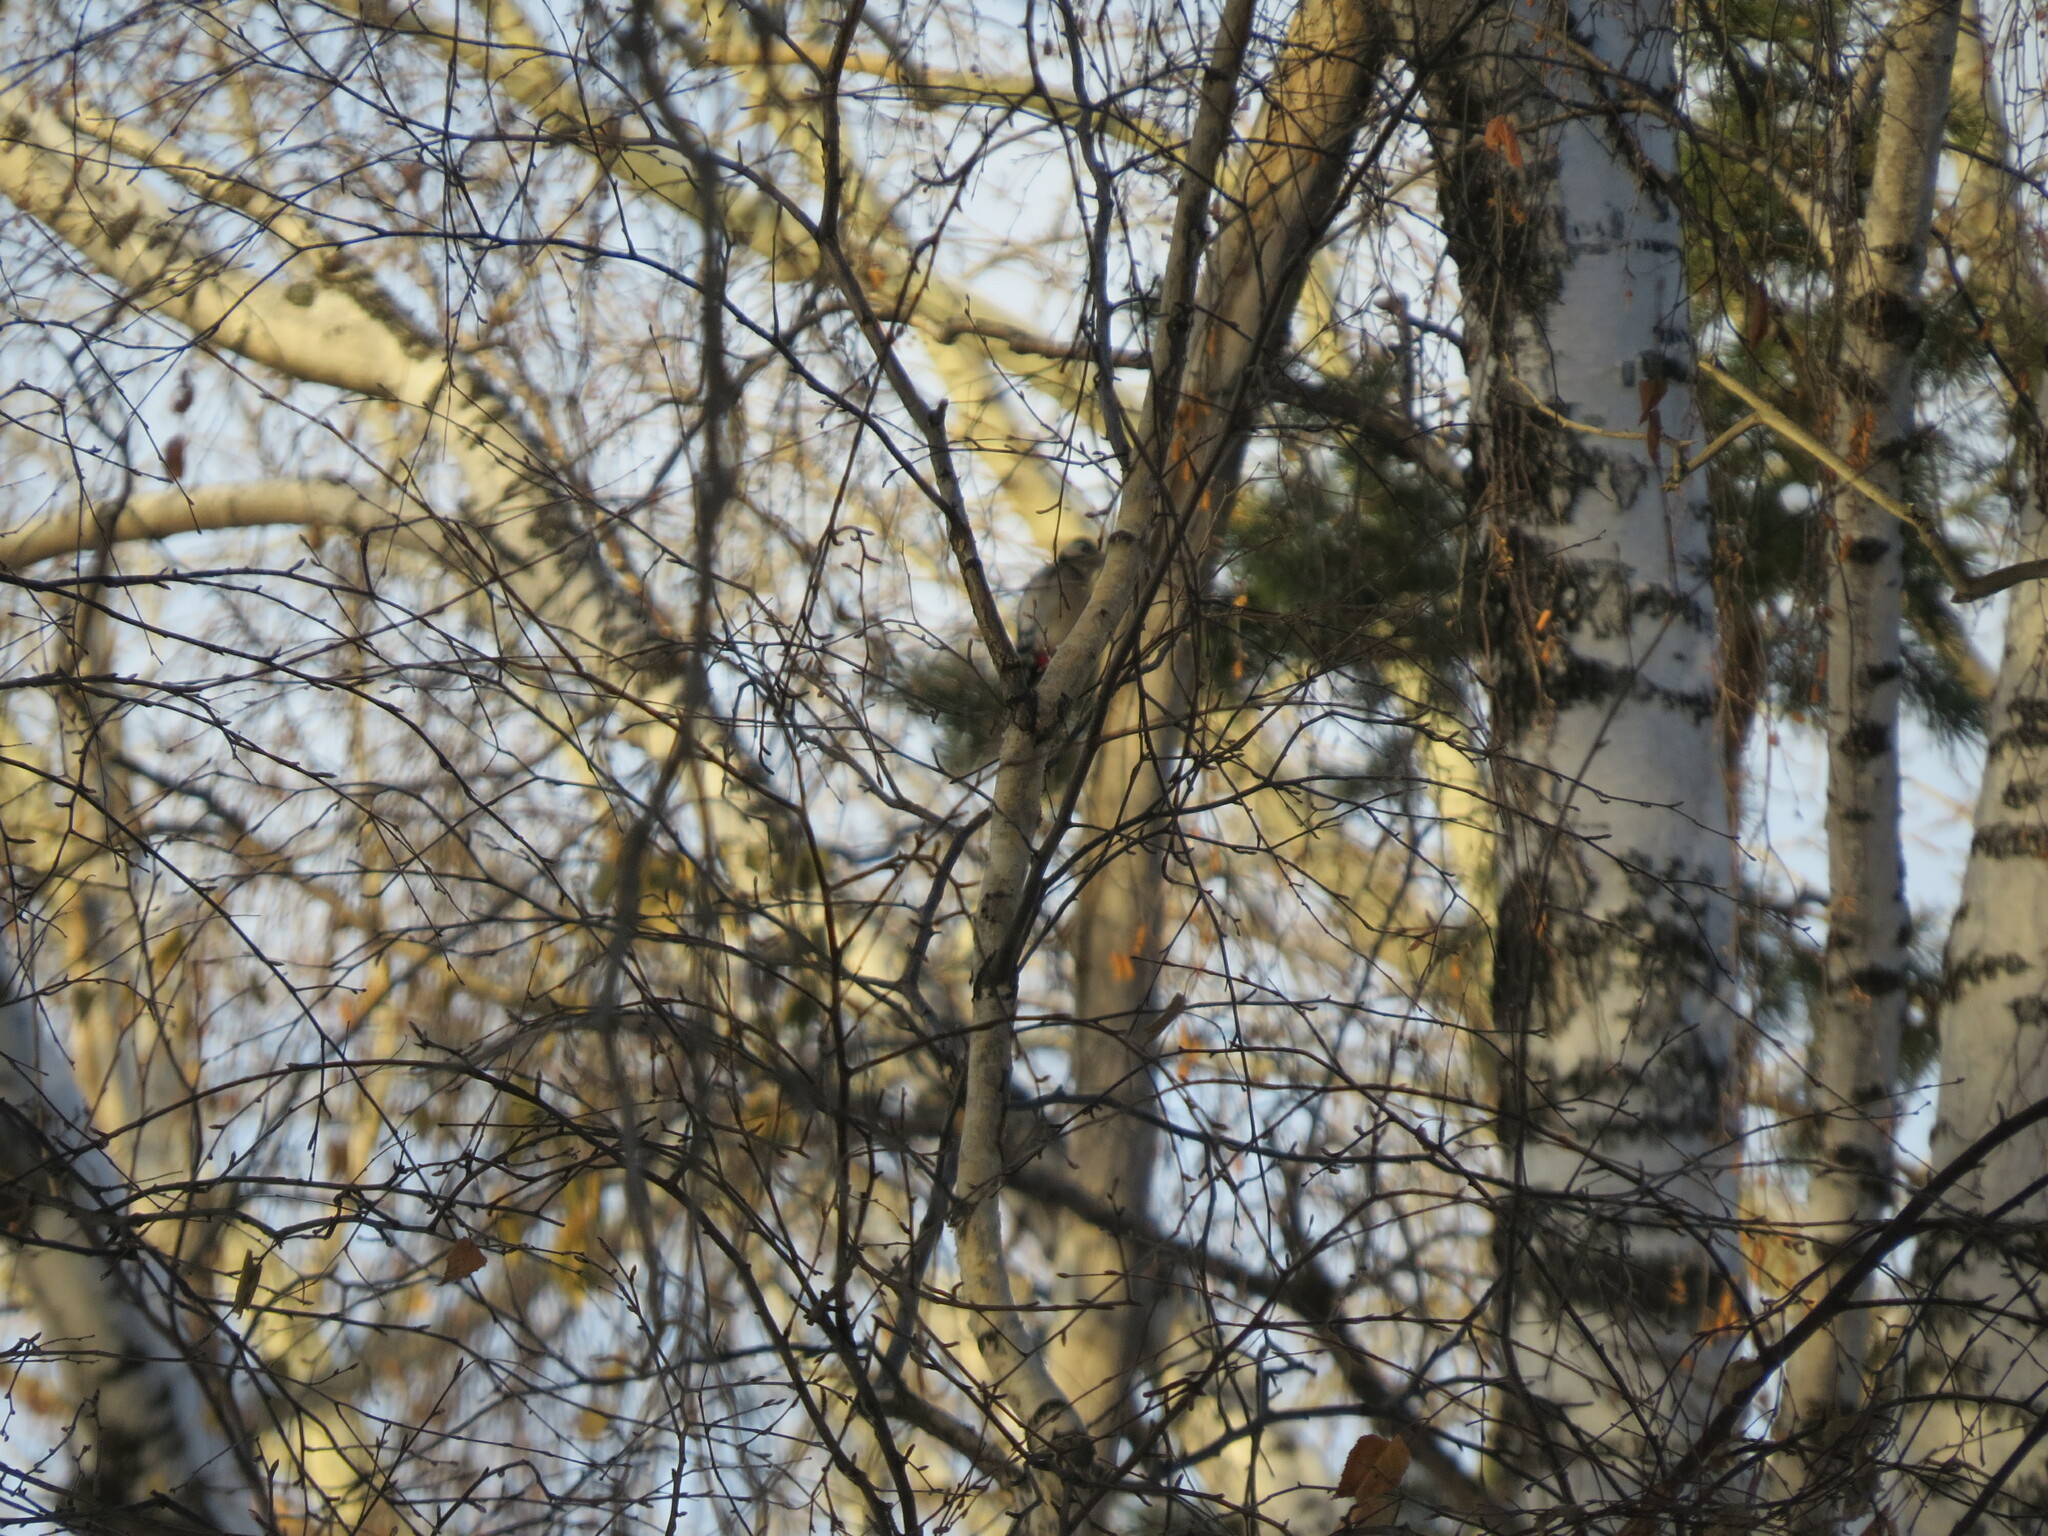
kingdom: Animalia
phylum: Chordata
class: Aves
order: Piciformes
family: Picidae
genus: Dendrocopos
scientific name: Dendrocopos major
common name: Great spotted woodpecker
